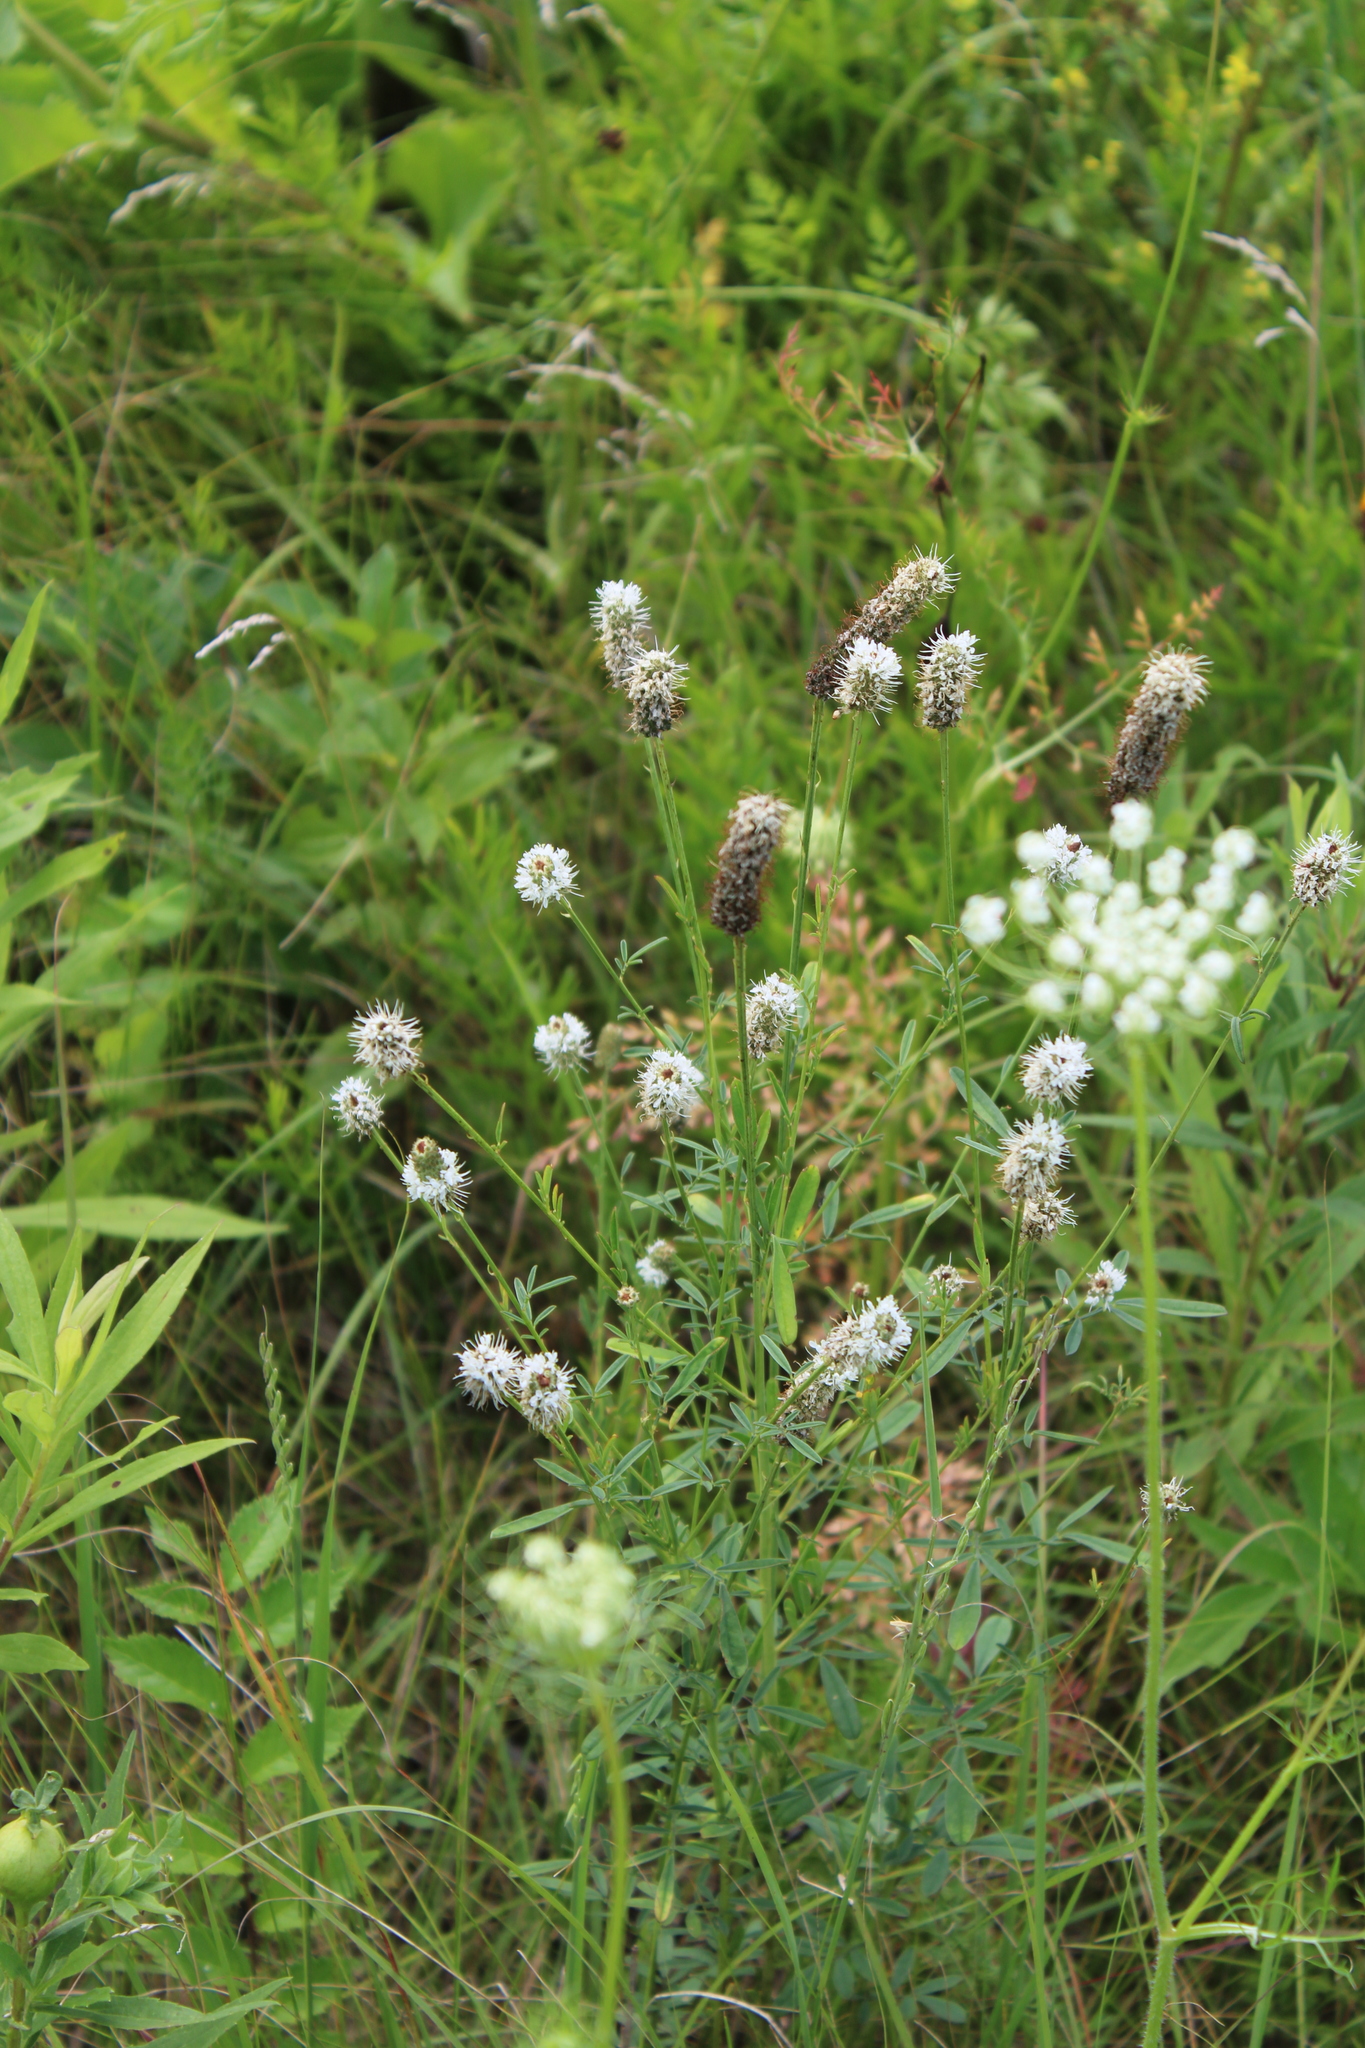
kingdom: Plantae
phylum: Tracheophyta
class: Magnoliopsida
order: Fabales
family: Fabaceae
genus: Dalea
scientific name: Dalea candida
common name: White prairie-clover
